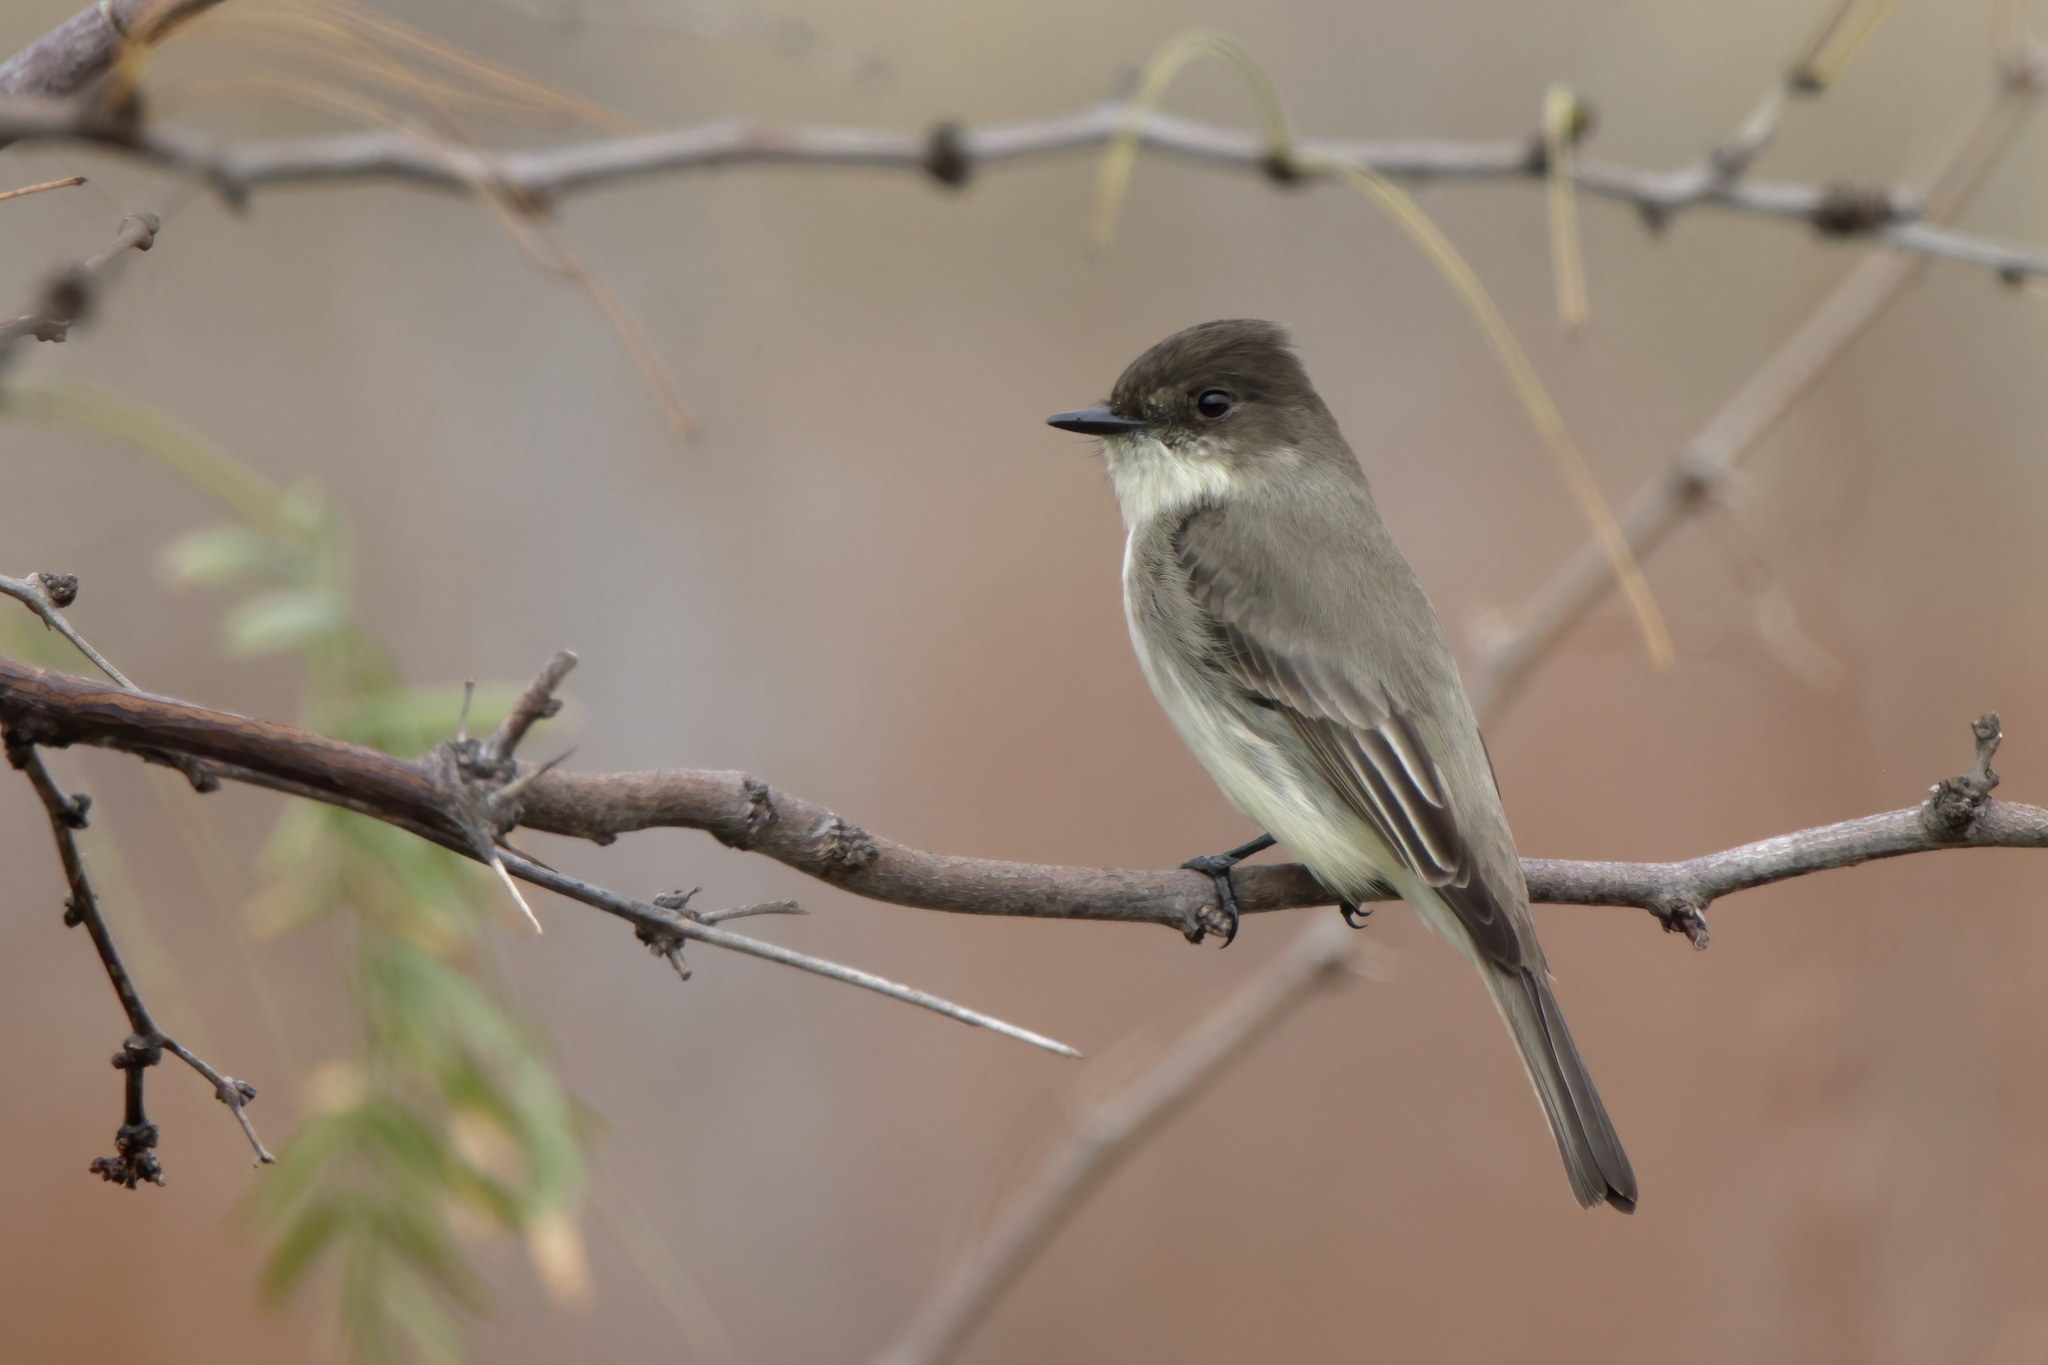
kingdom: Animalia
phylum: Chordata
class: Aves
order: Passeriformes
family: Tyrannidae
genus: Sayornis
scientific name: Sayornis phoebe
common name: Eastern phoebe
